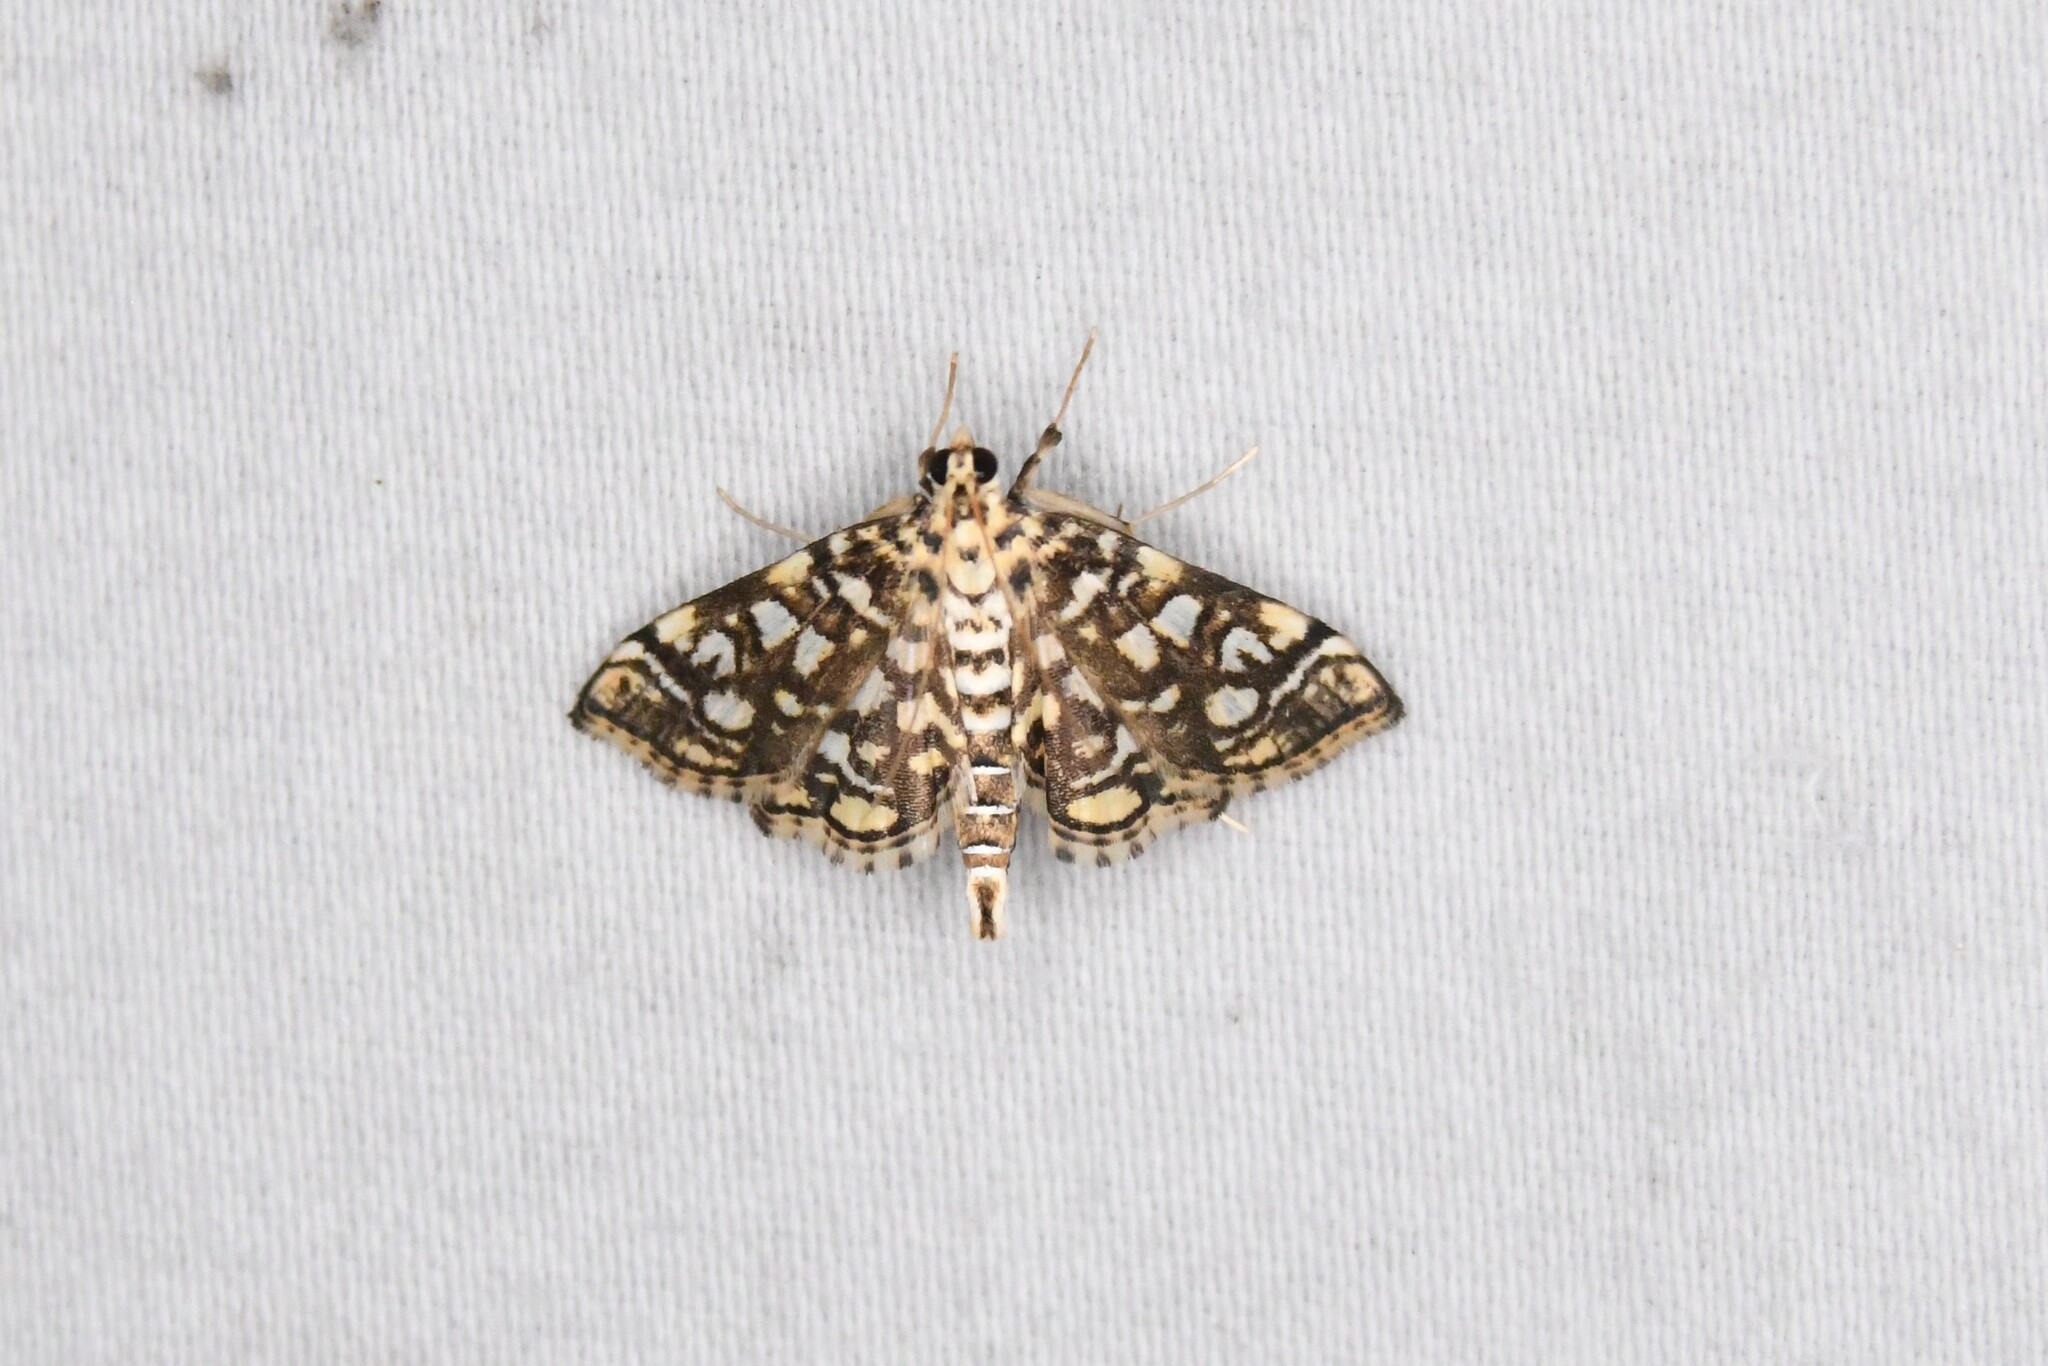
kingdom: Animalia
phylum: Arthropoda
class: Insecta
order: Lepidoptera
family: Crambidae
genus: Lygropia
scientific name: Lygropia rivulalis
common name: Bog lygropia moth
